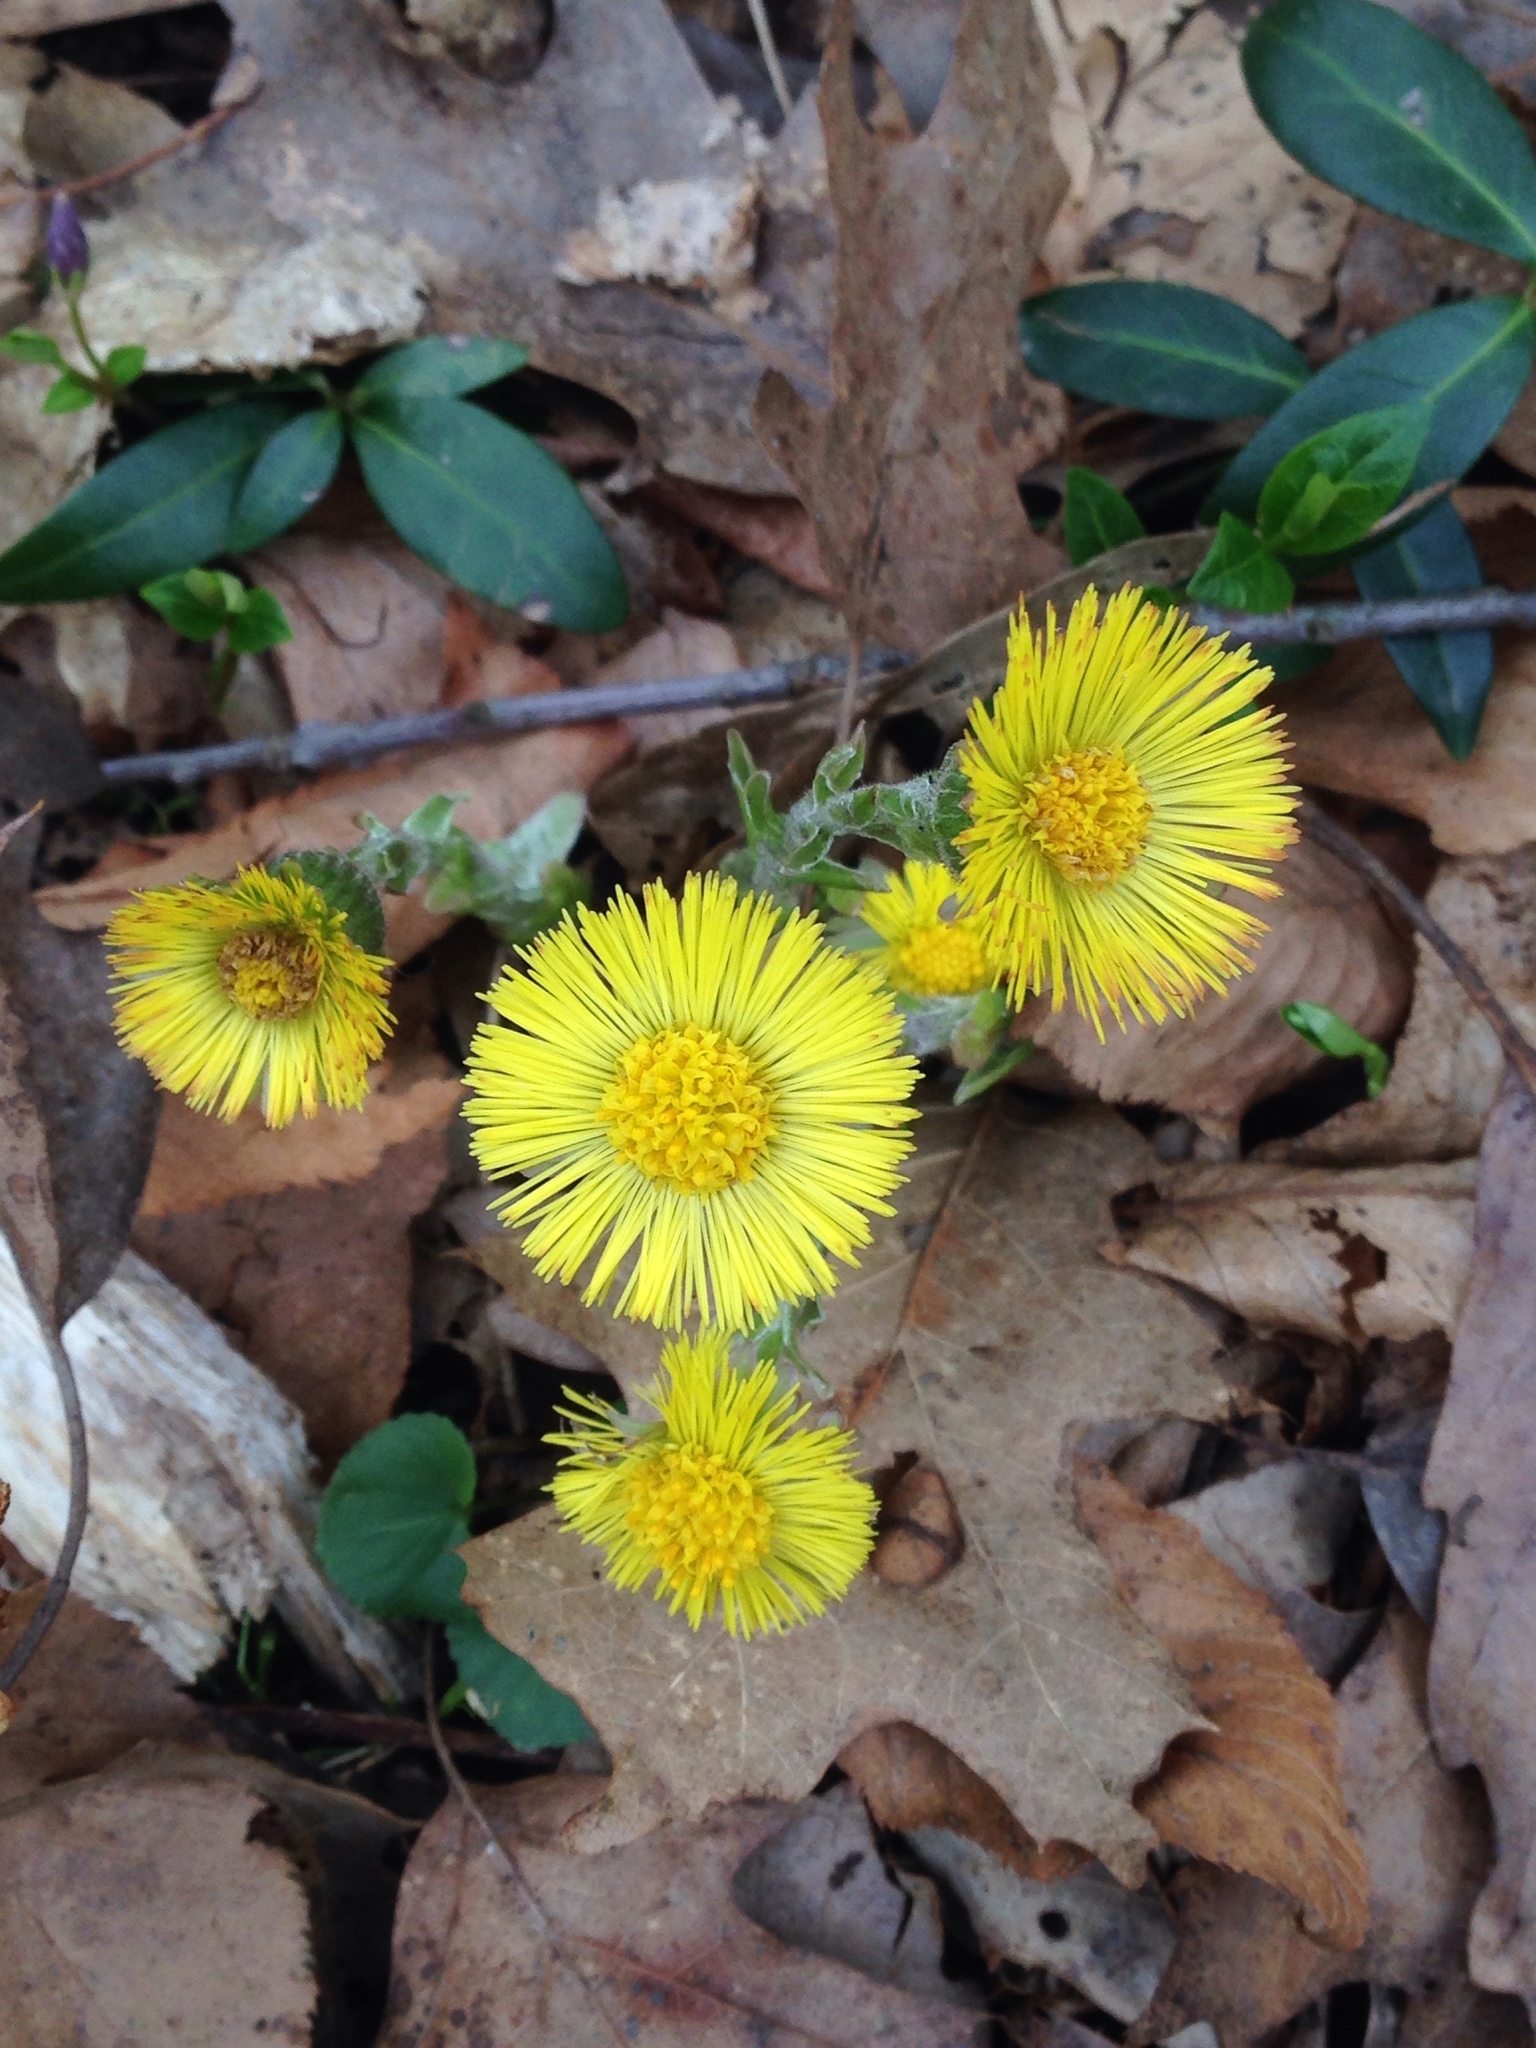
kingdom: Plantae
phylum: Tracheophyta
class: Magnoliopsida
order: Asterales
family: Asteraceae
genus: Tussilago
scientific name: Tussilago farfara
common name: Coltsfoot
